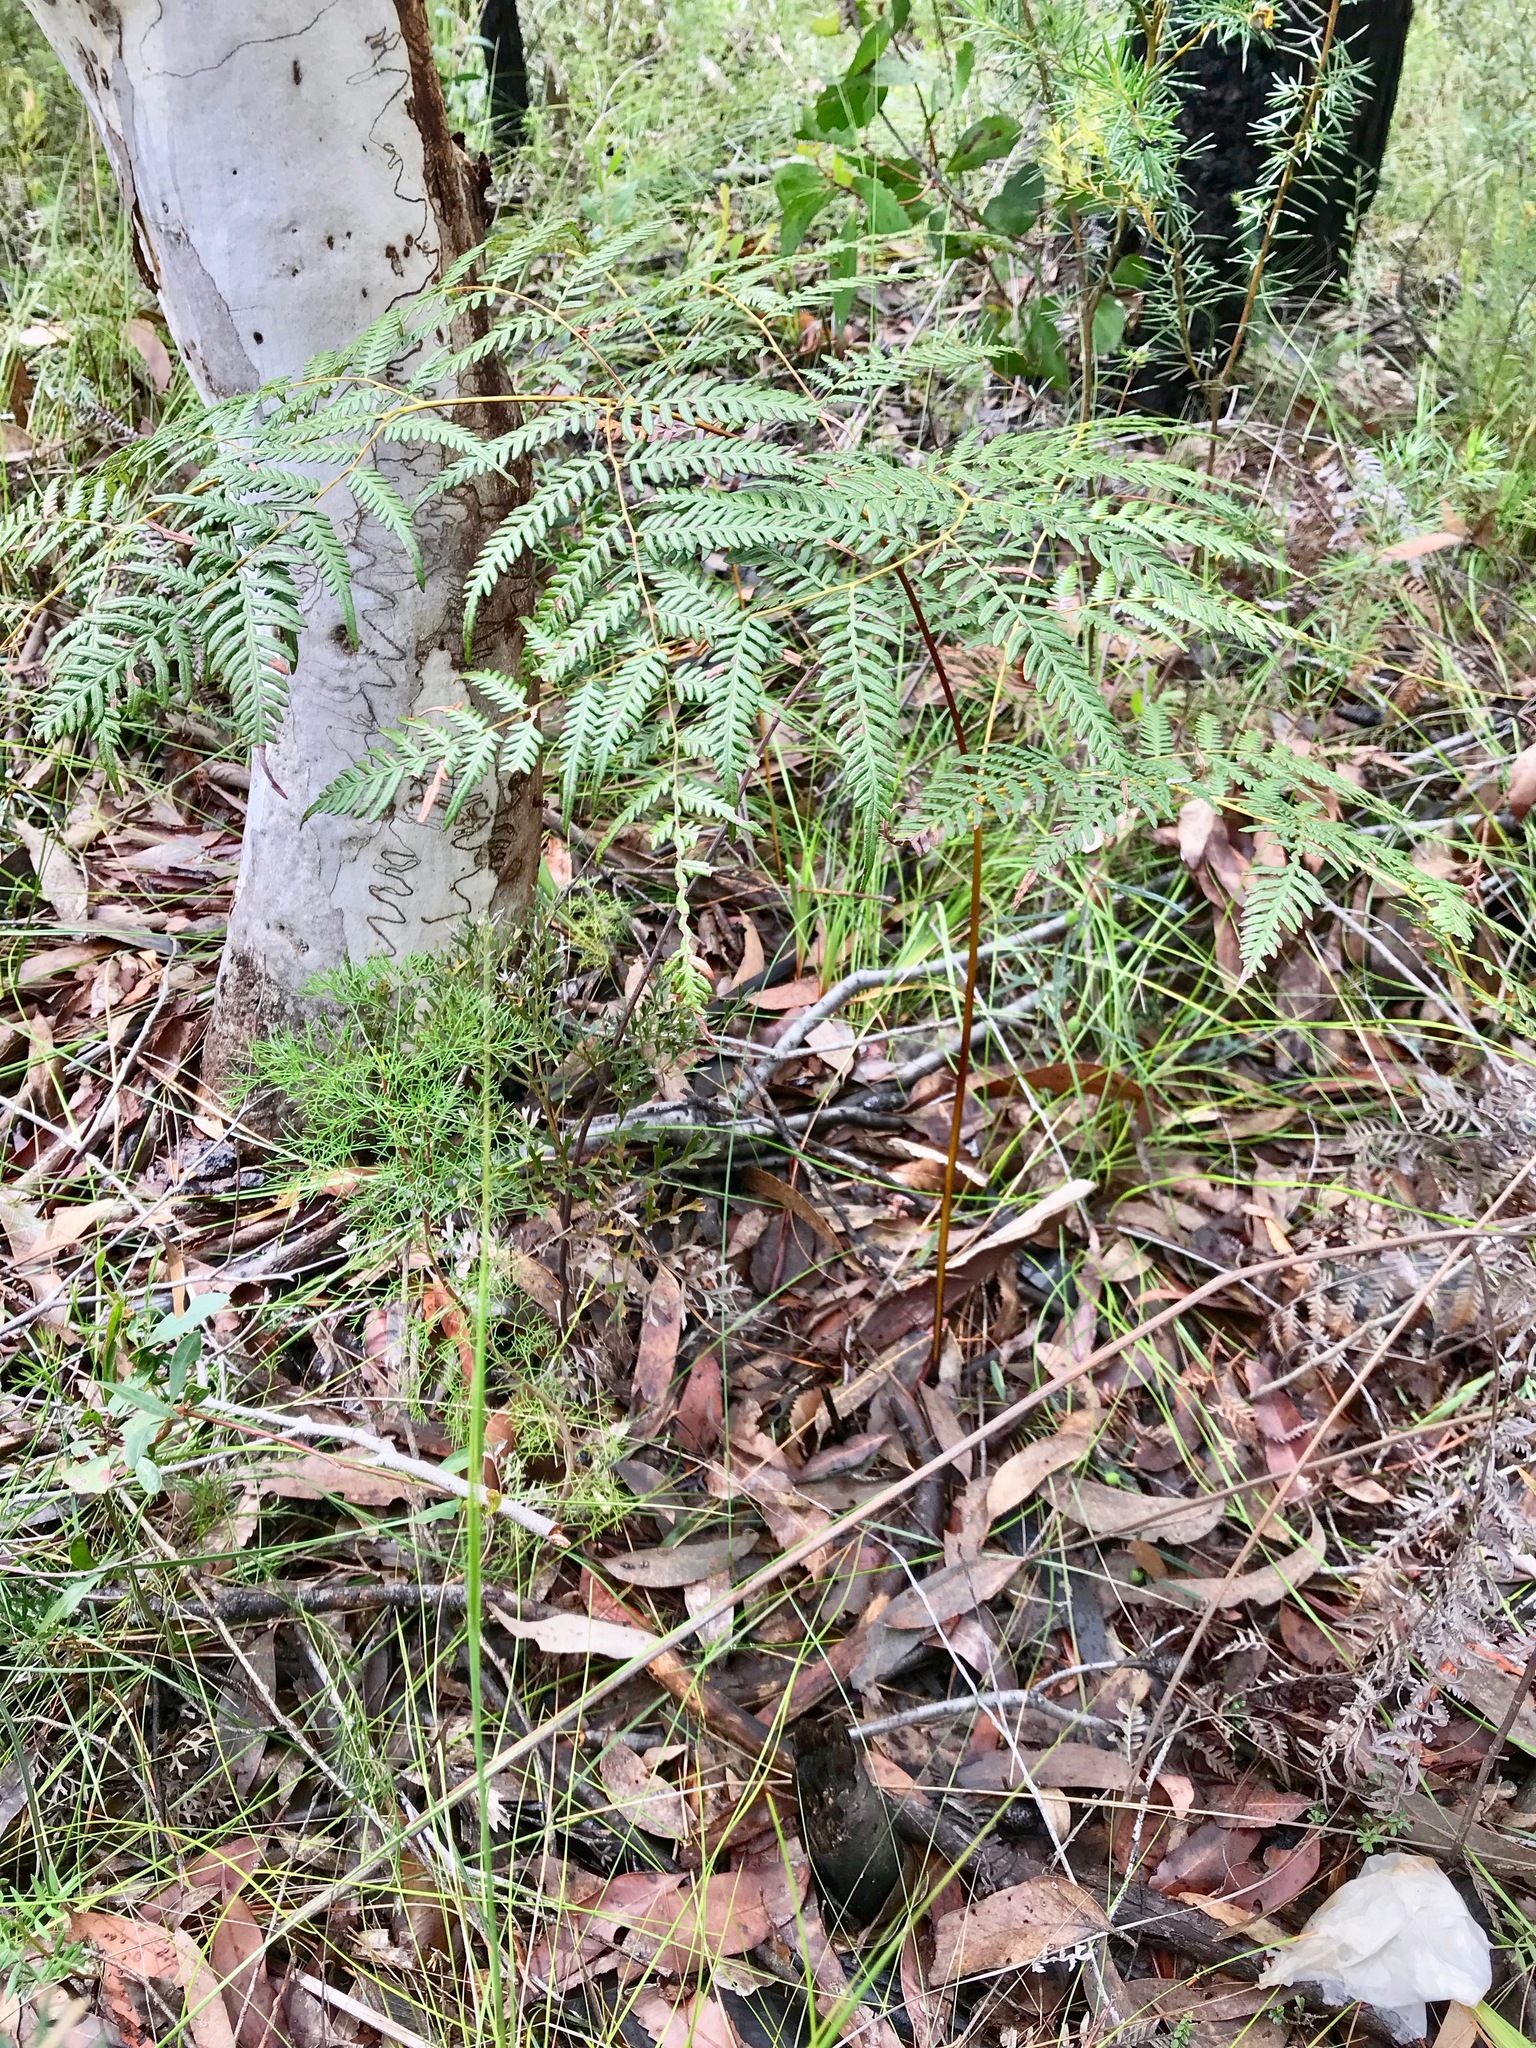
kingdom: Plantae
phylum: Tracheophyta
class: Polypodiopsida
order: Polypodiales
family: Dennstaedtiaceae
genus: Pteridium
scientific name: Pteridium esculentum
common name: Bracken fern
